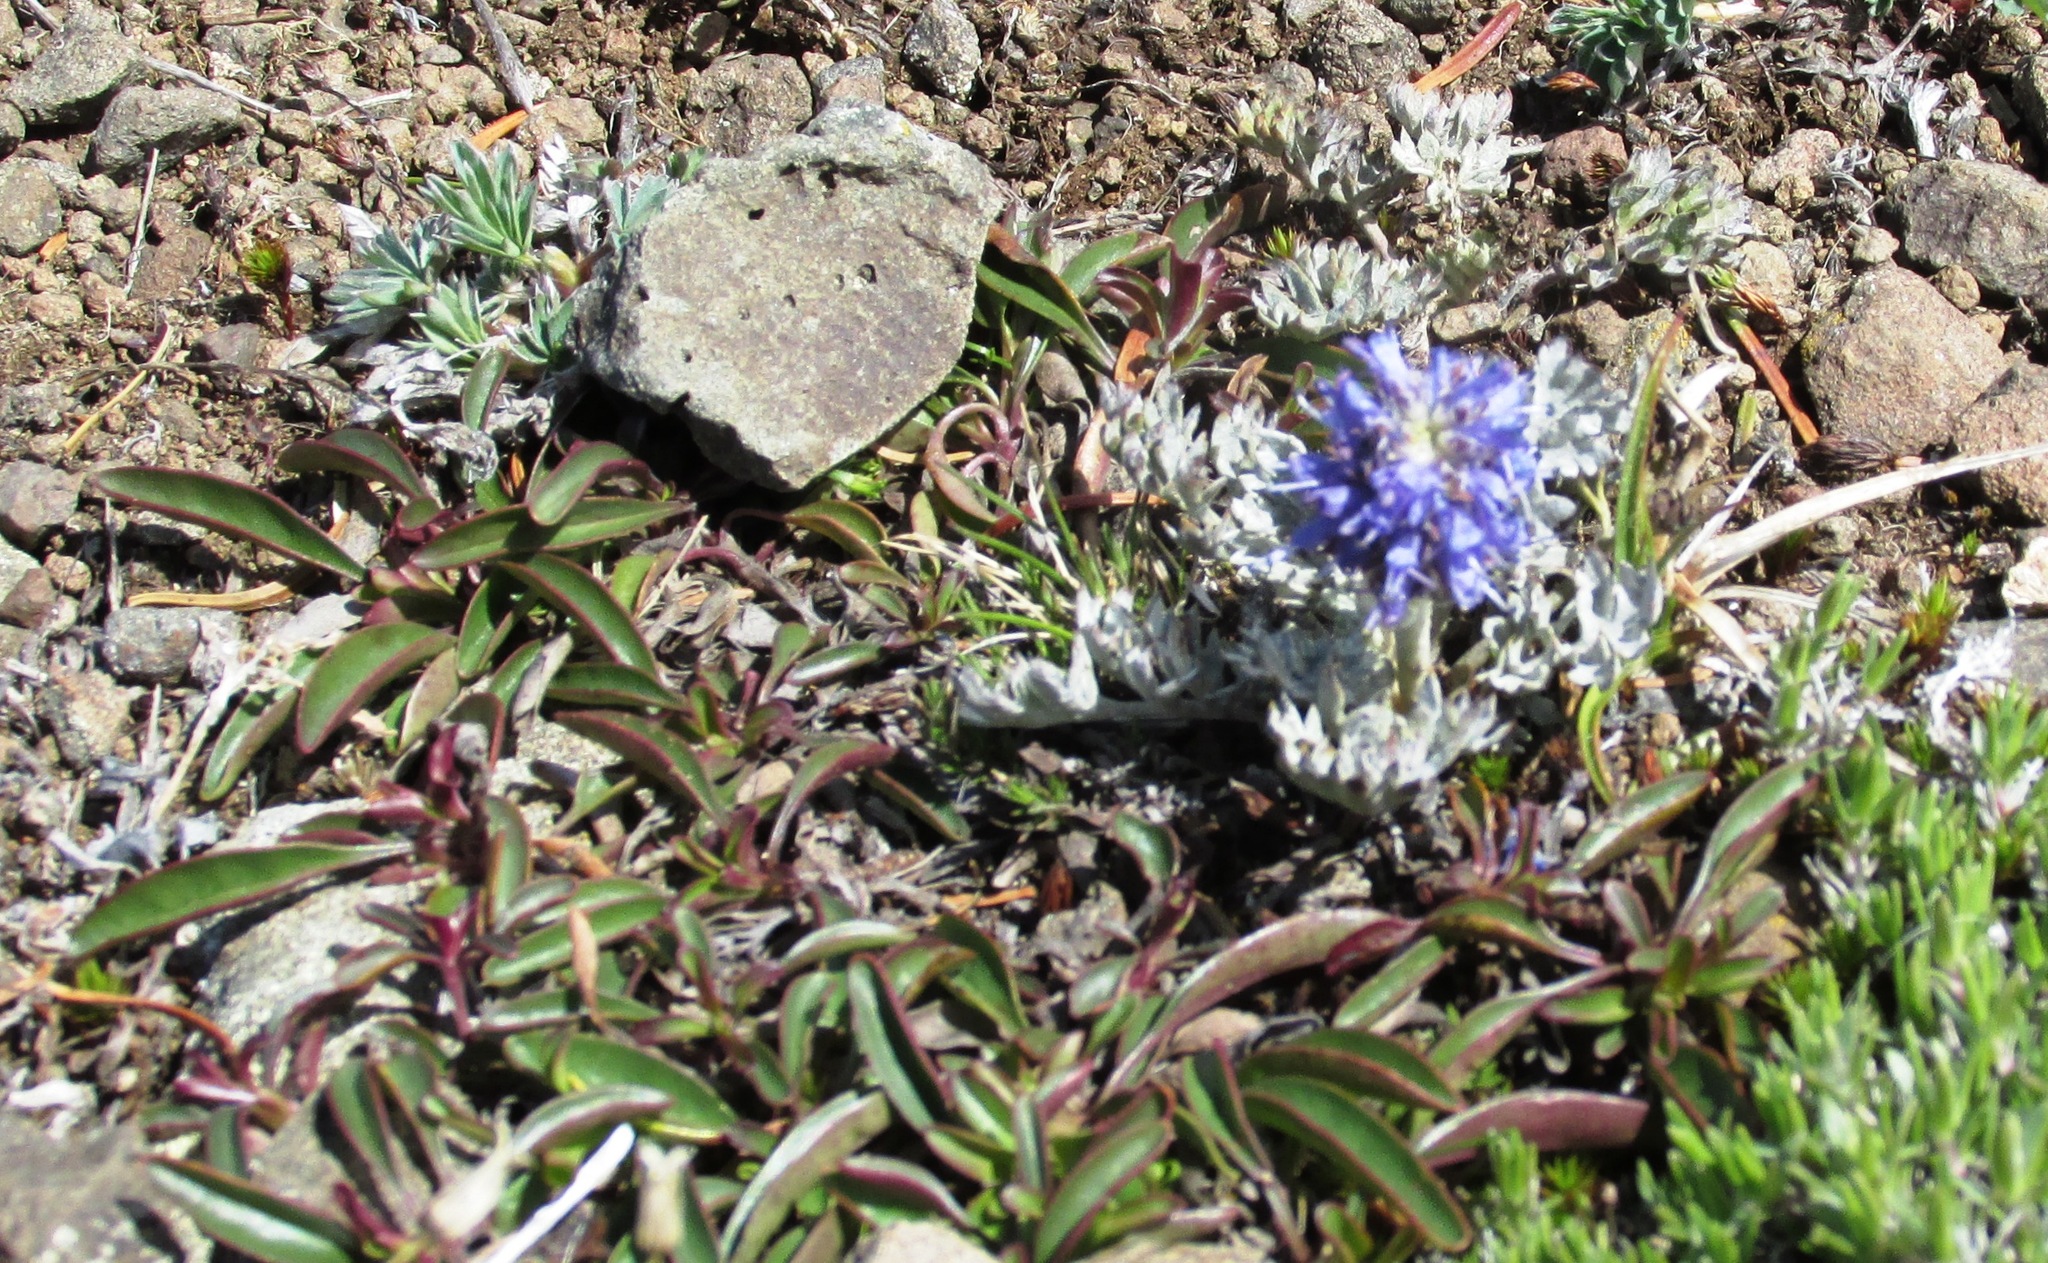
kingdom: Plantae
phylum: Tracheophyta
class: Magnoliopsida
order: Lamiales
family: Plantaginaceae
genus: Synthyris
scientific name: Synthyris lanuginosa
